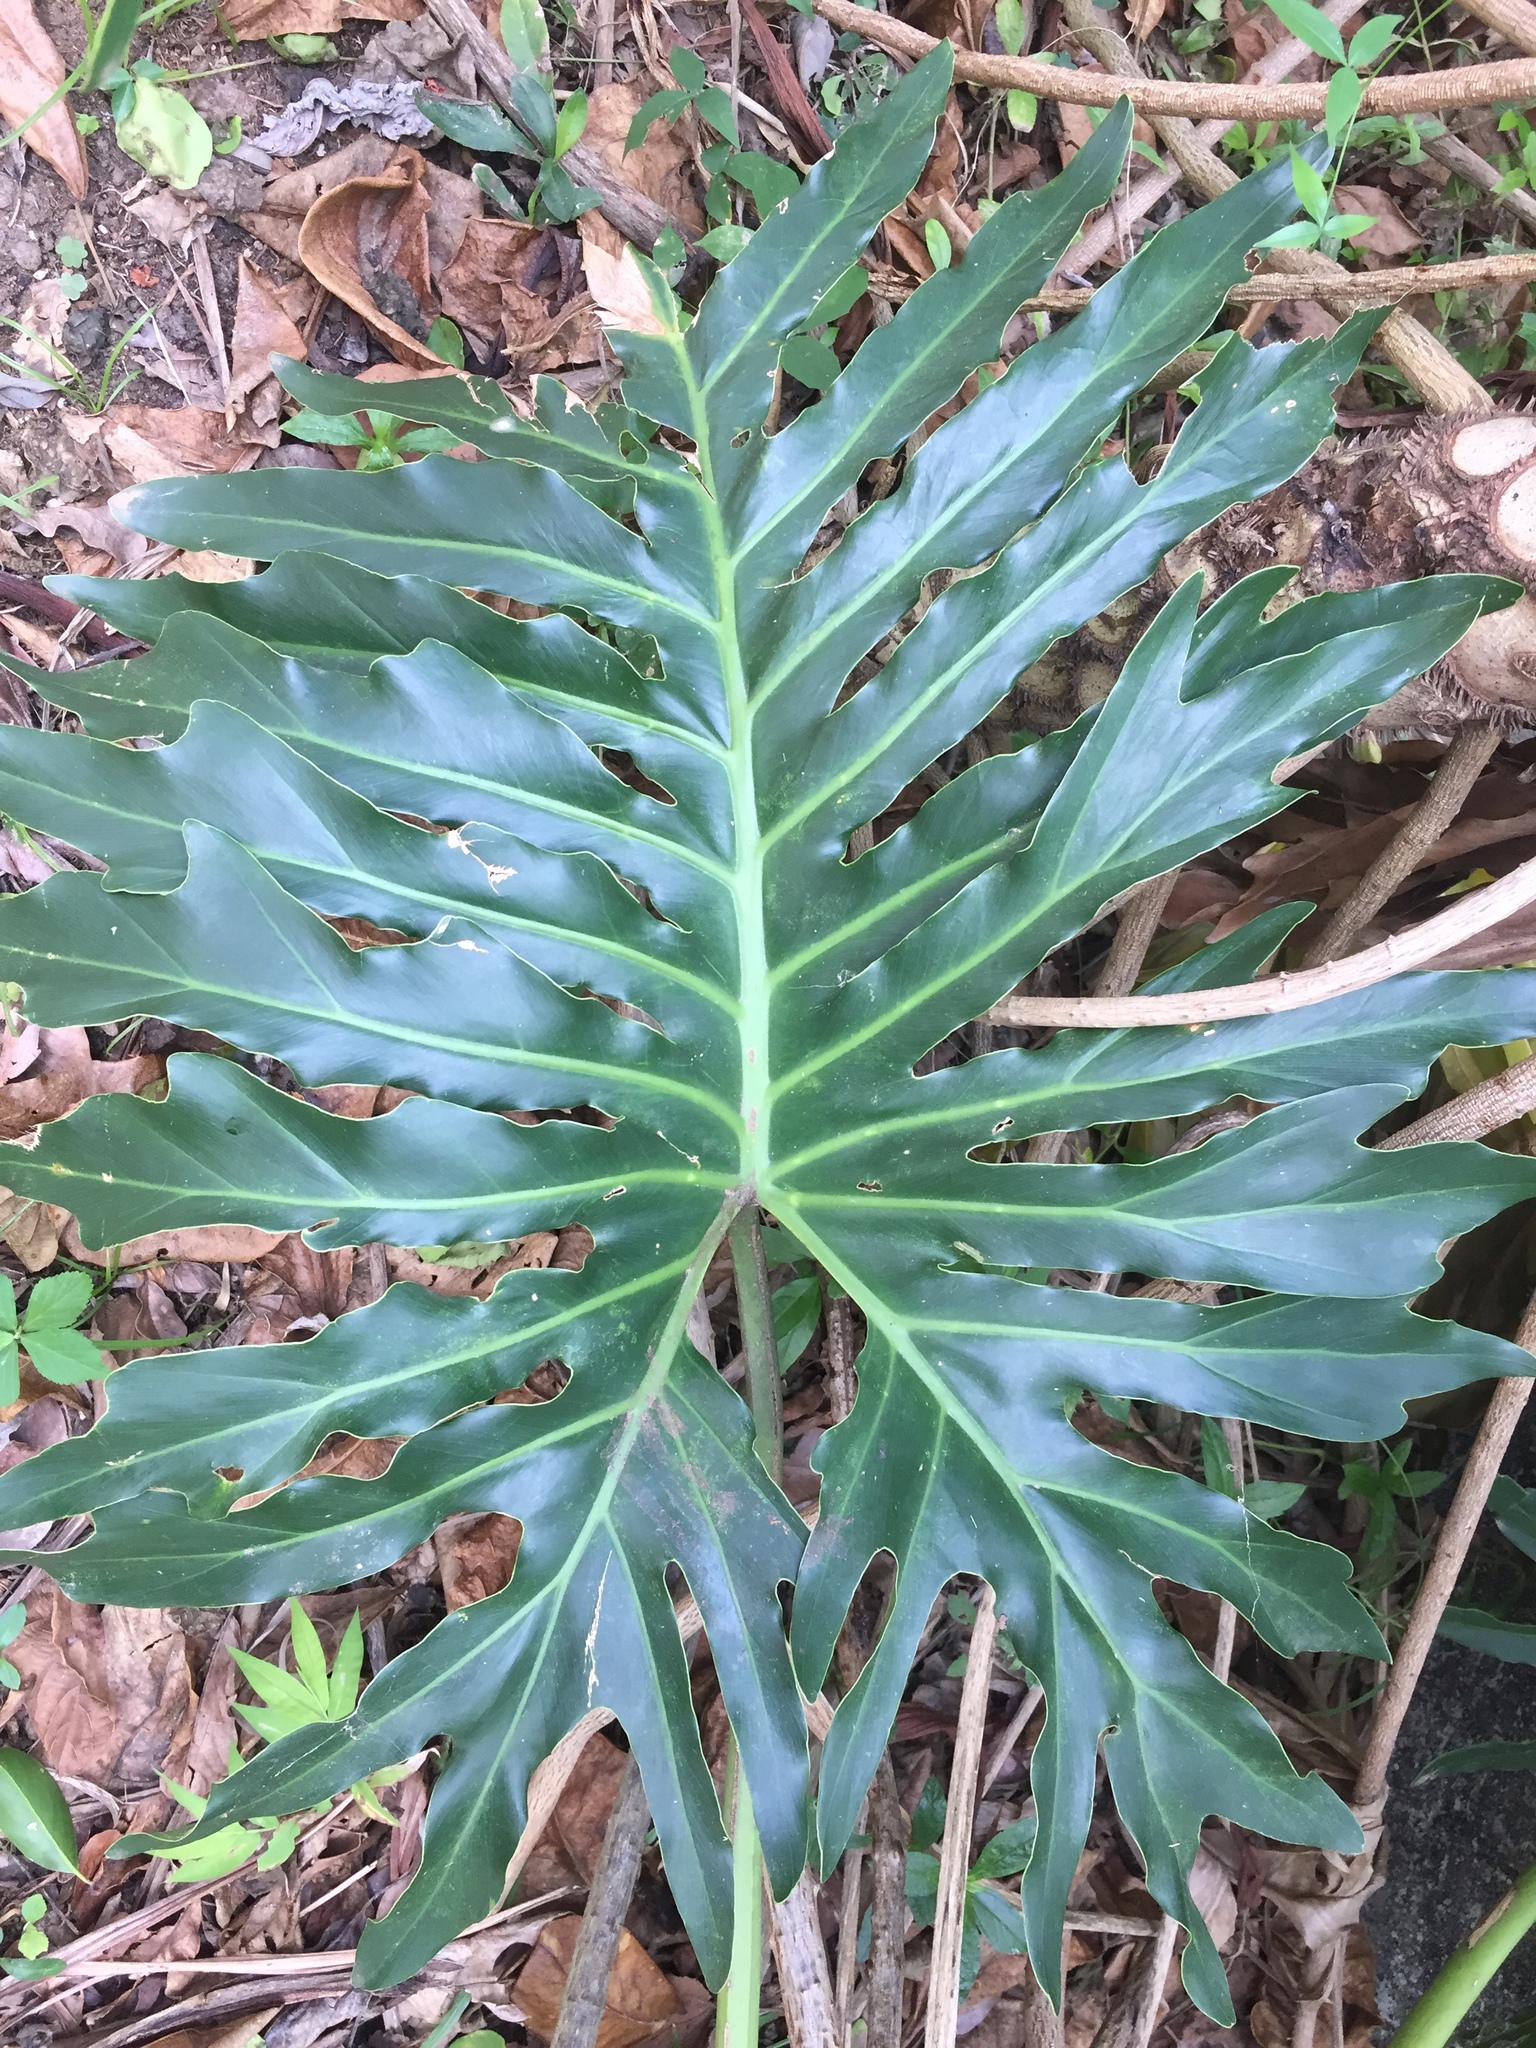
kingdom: Plantae
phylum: Tracheophyta
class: Liliopsida
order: Alismatales
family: Araceae
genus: Thaumatophyllum
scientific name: Thaumatophyllum bipinnatifidum
